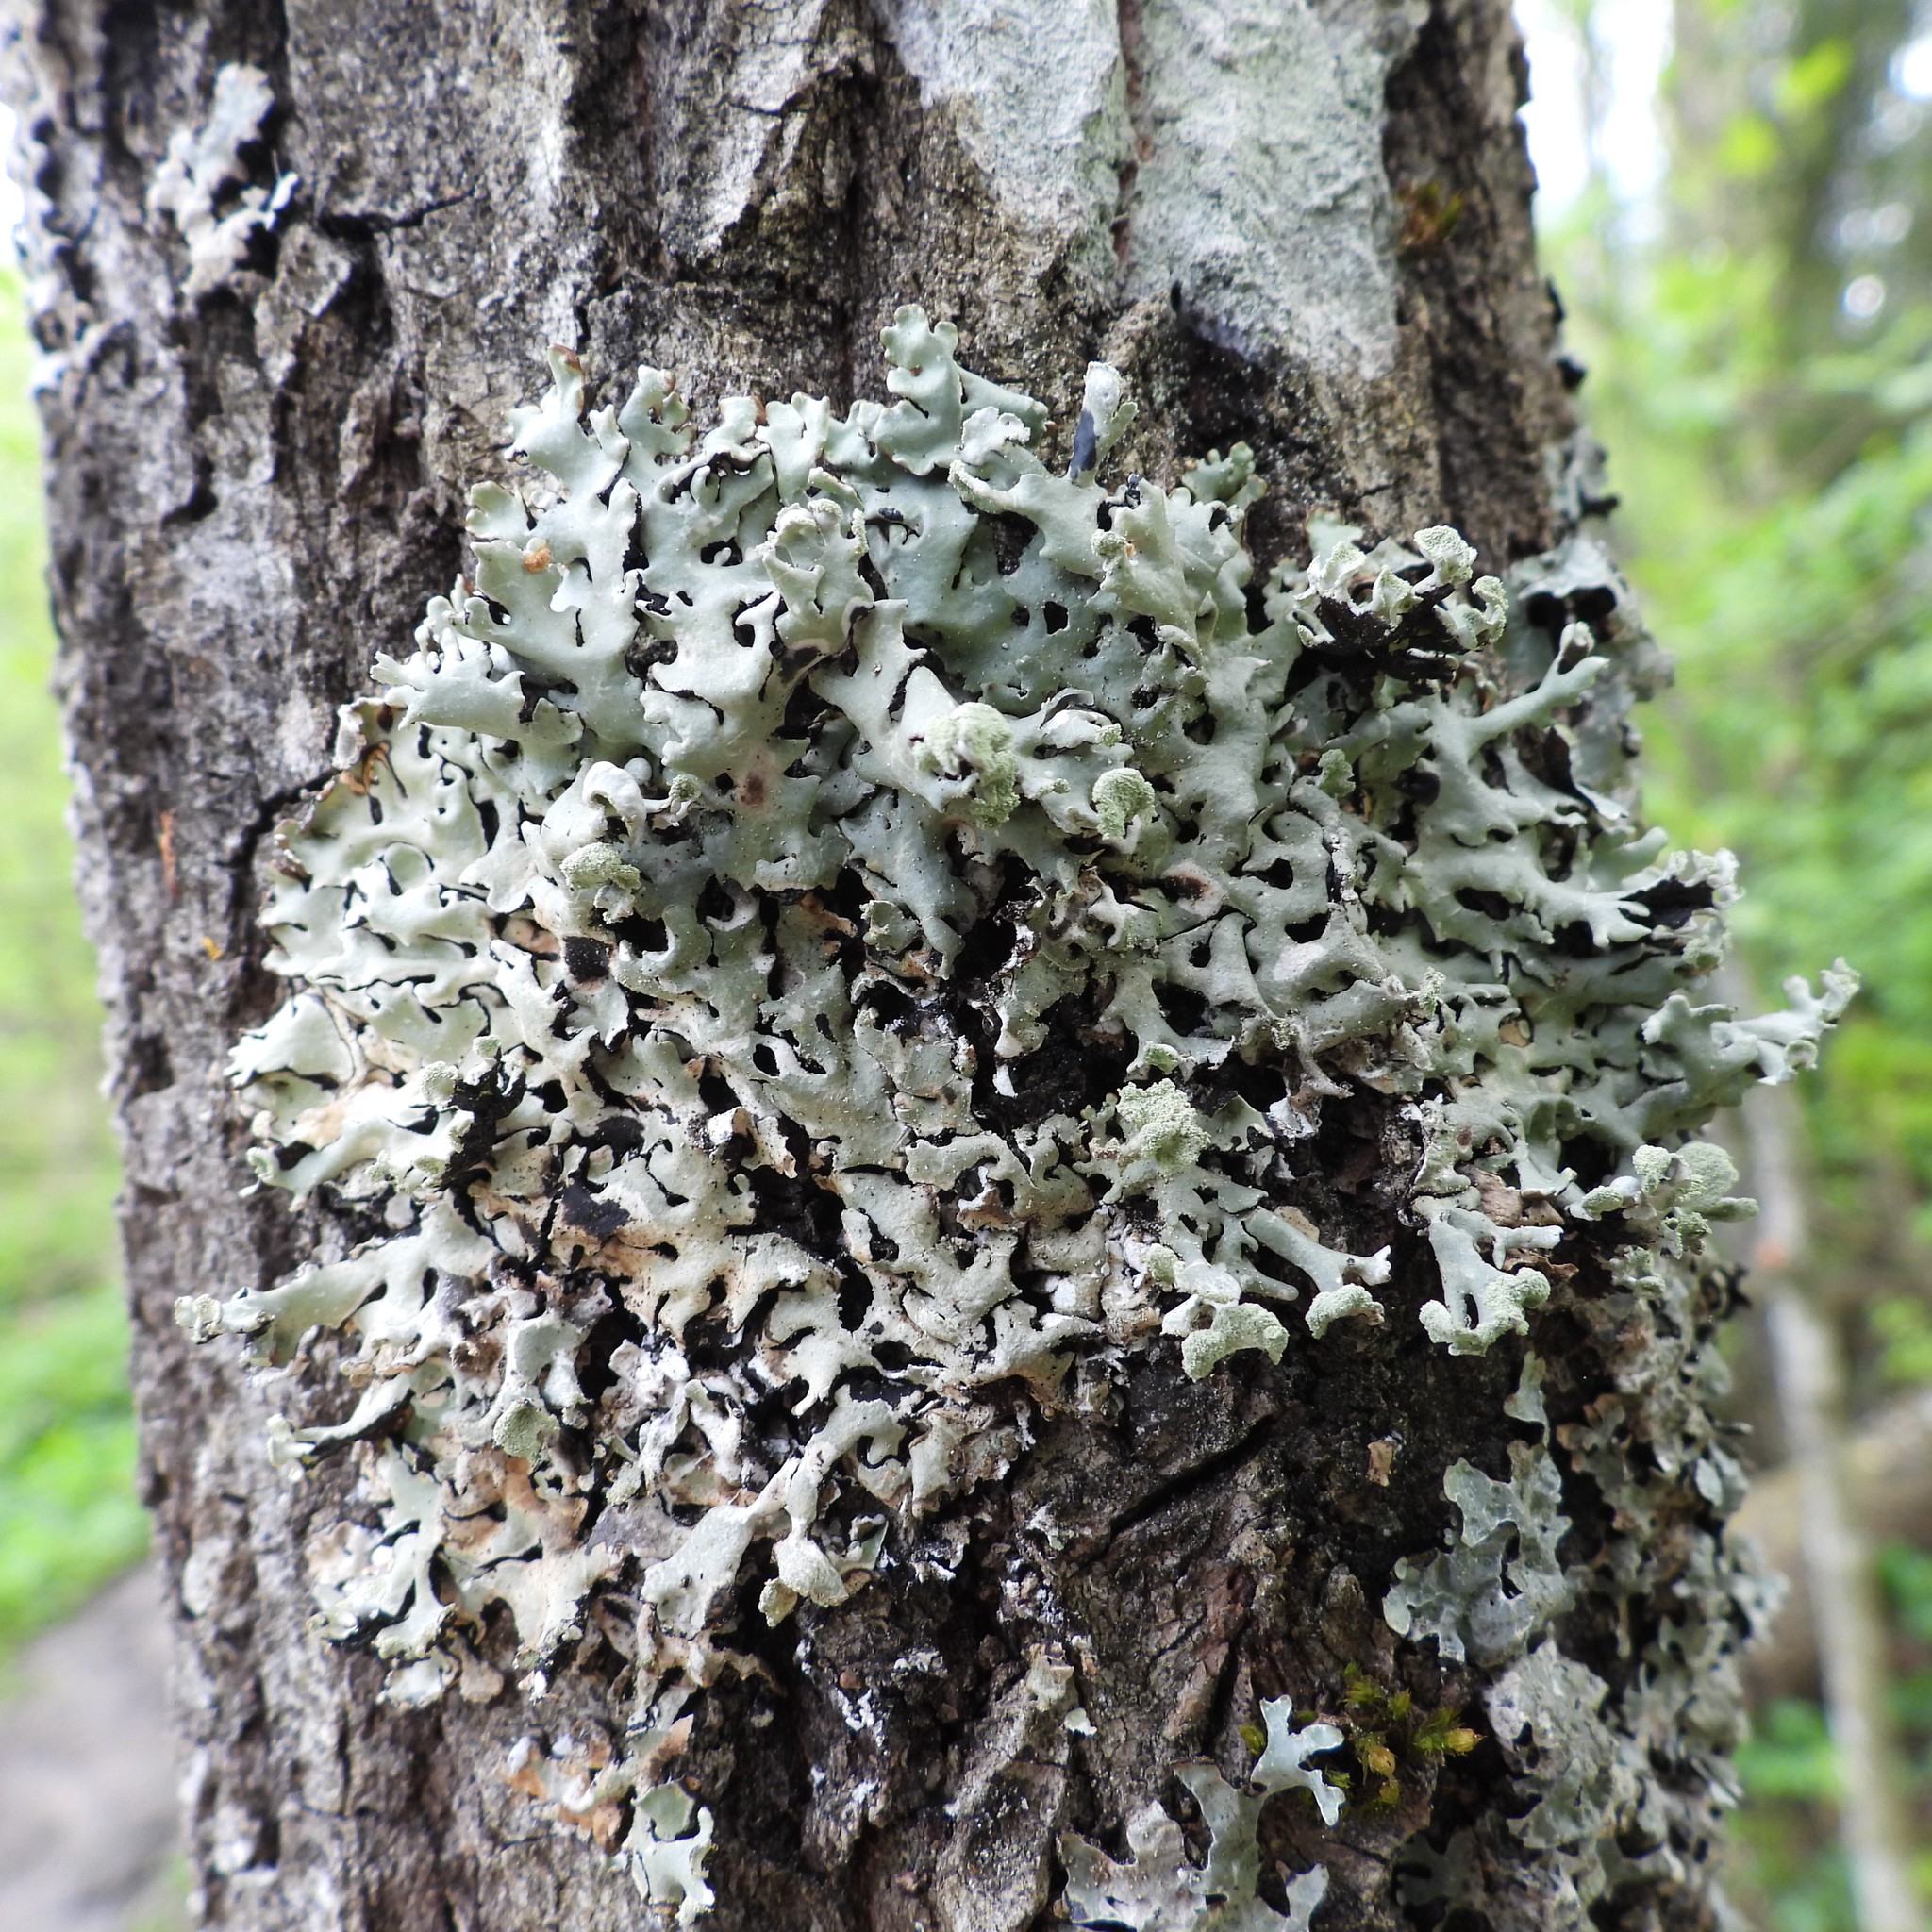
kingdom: Fungi
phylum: Ascomycota
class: Lecanoromycetes
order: Lecanorales
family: Parmeliaceae
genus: Hypogymnia
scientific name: Hypogymnia physodes
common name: Dark crottle
